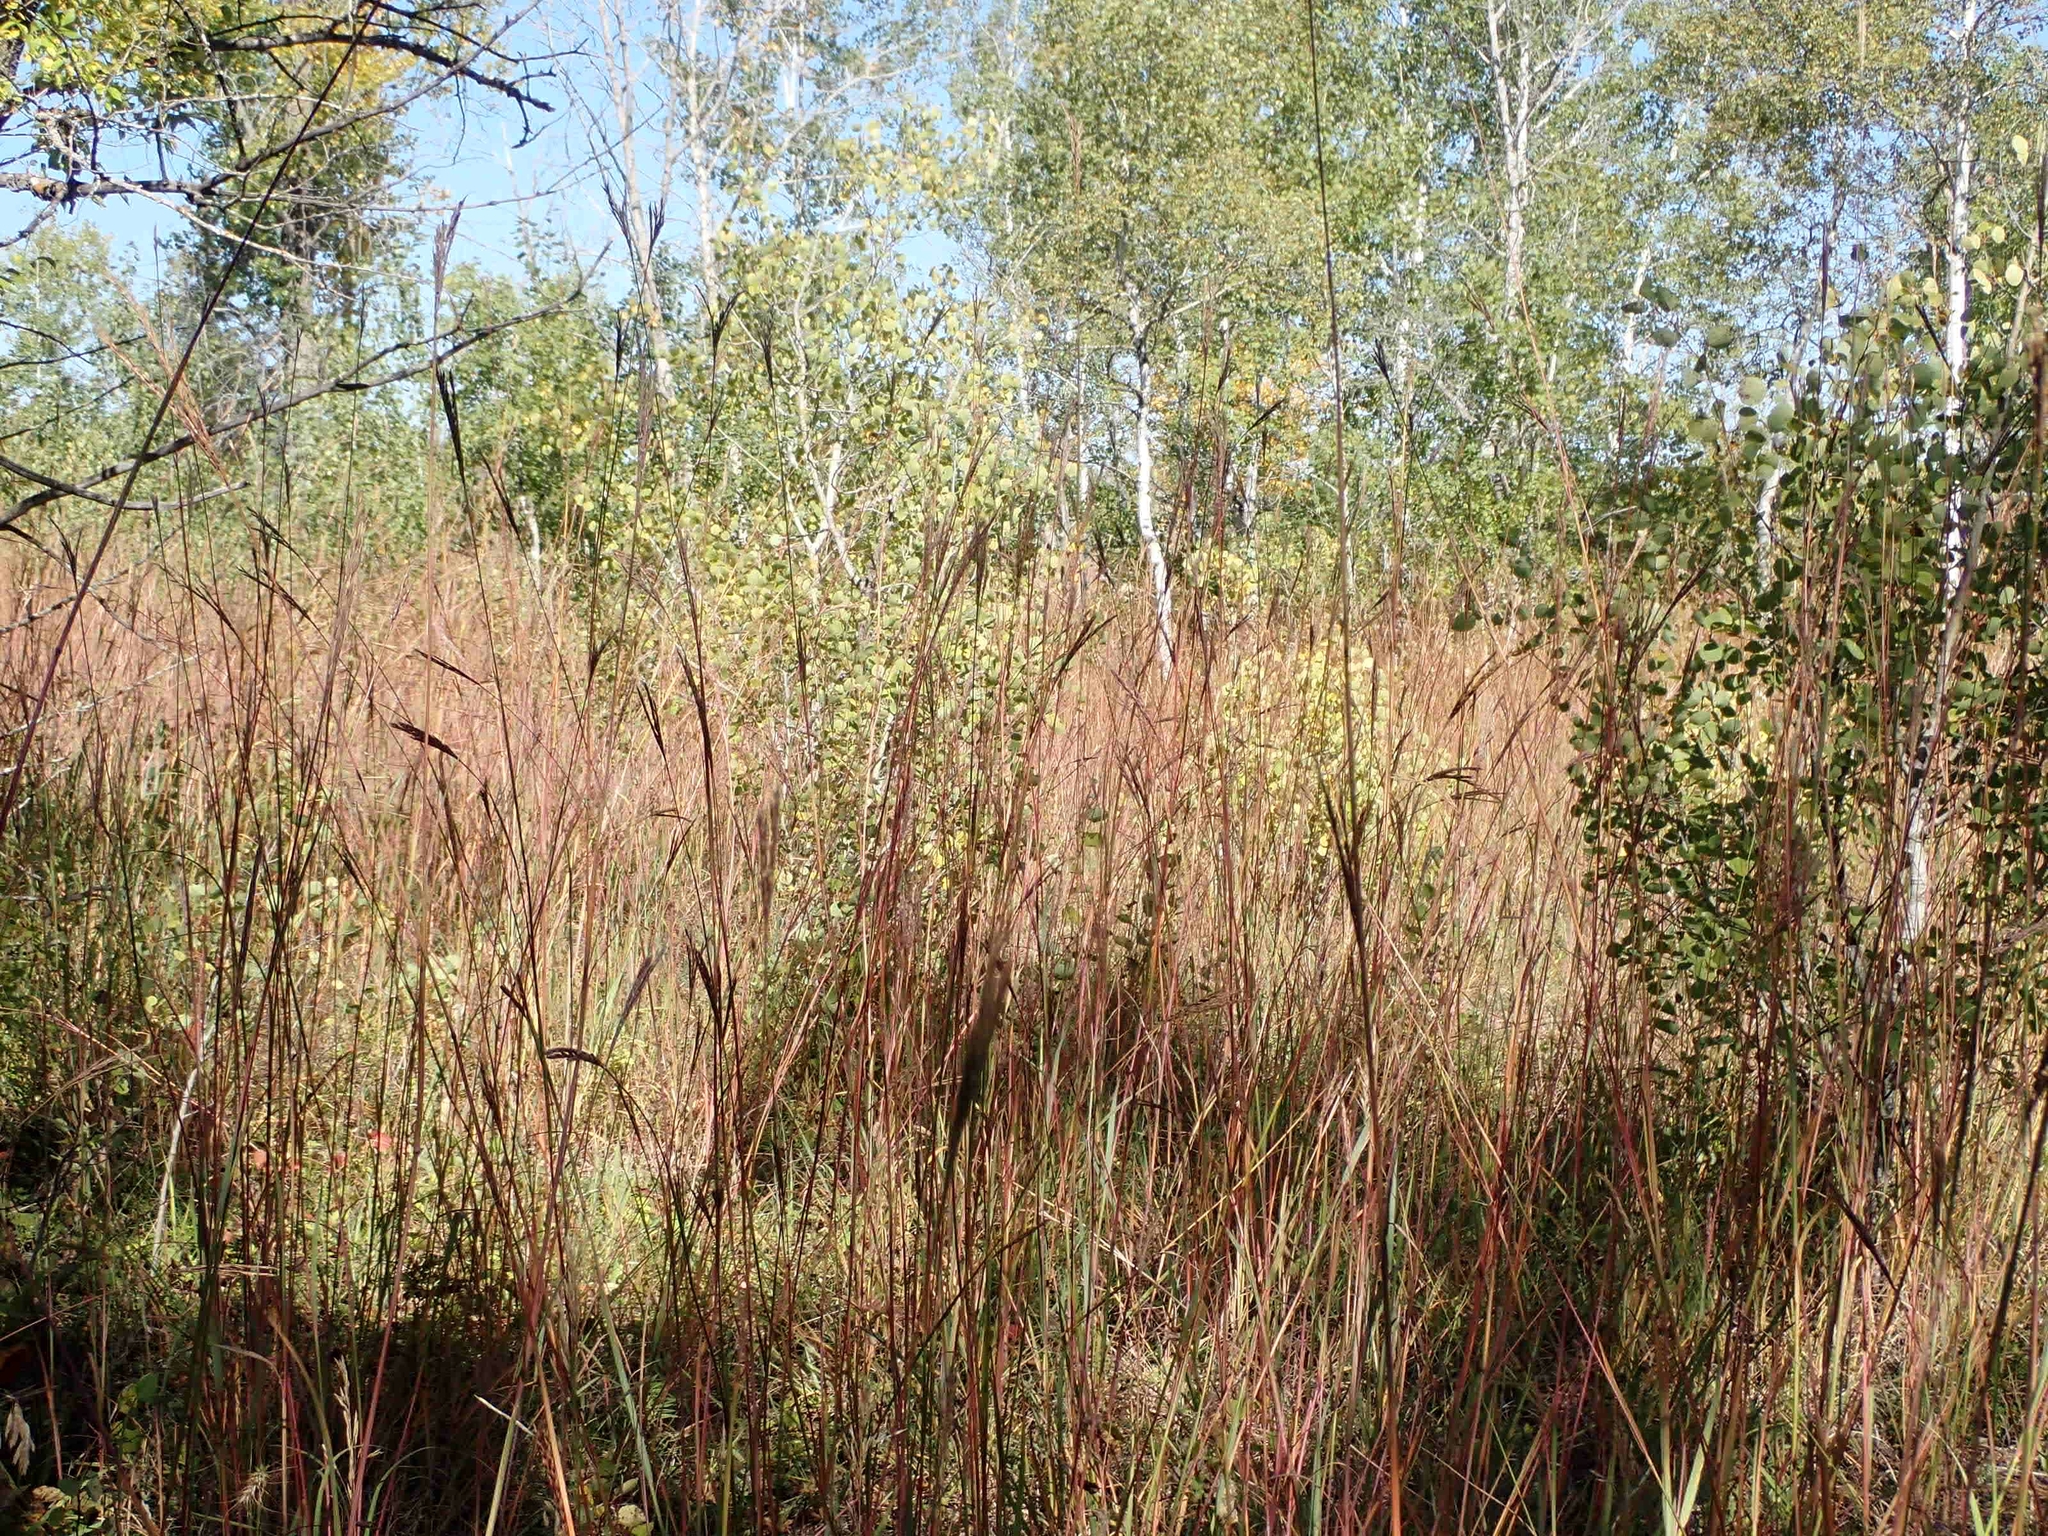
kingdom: Plantae
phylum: Tracheophyta
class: Liliopsida
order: Poales
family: Poaceae
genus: Andropogon
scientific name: Andropogon gerardi
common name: Big bluestem
